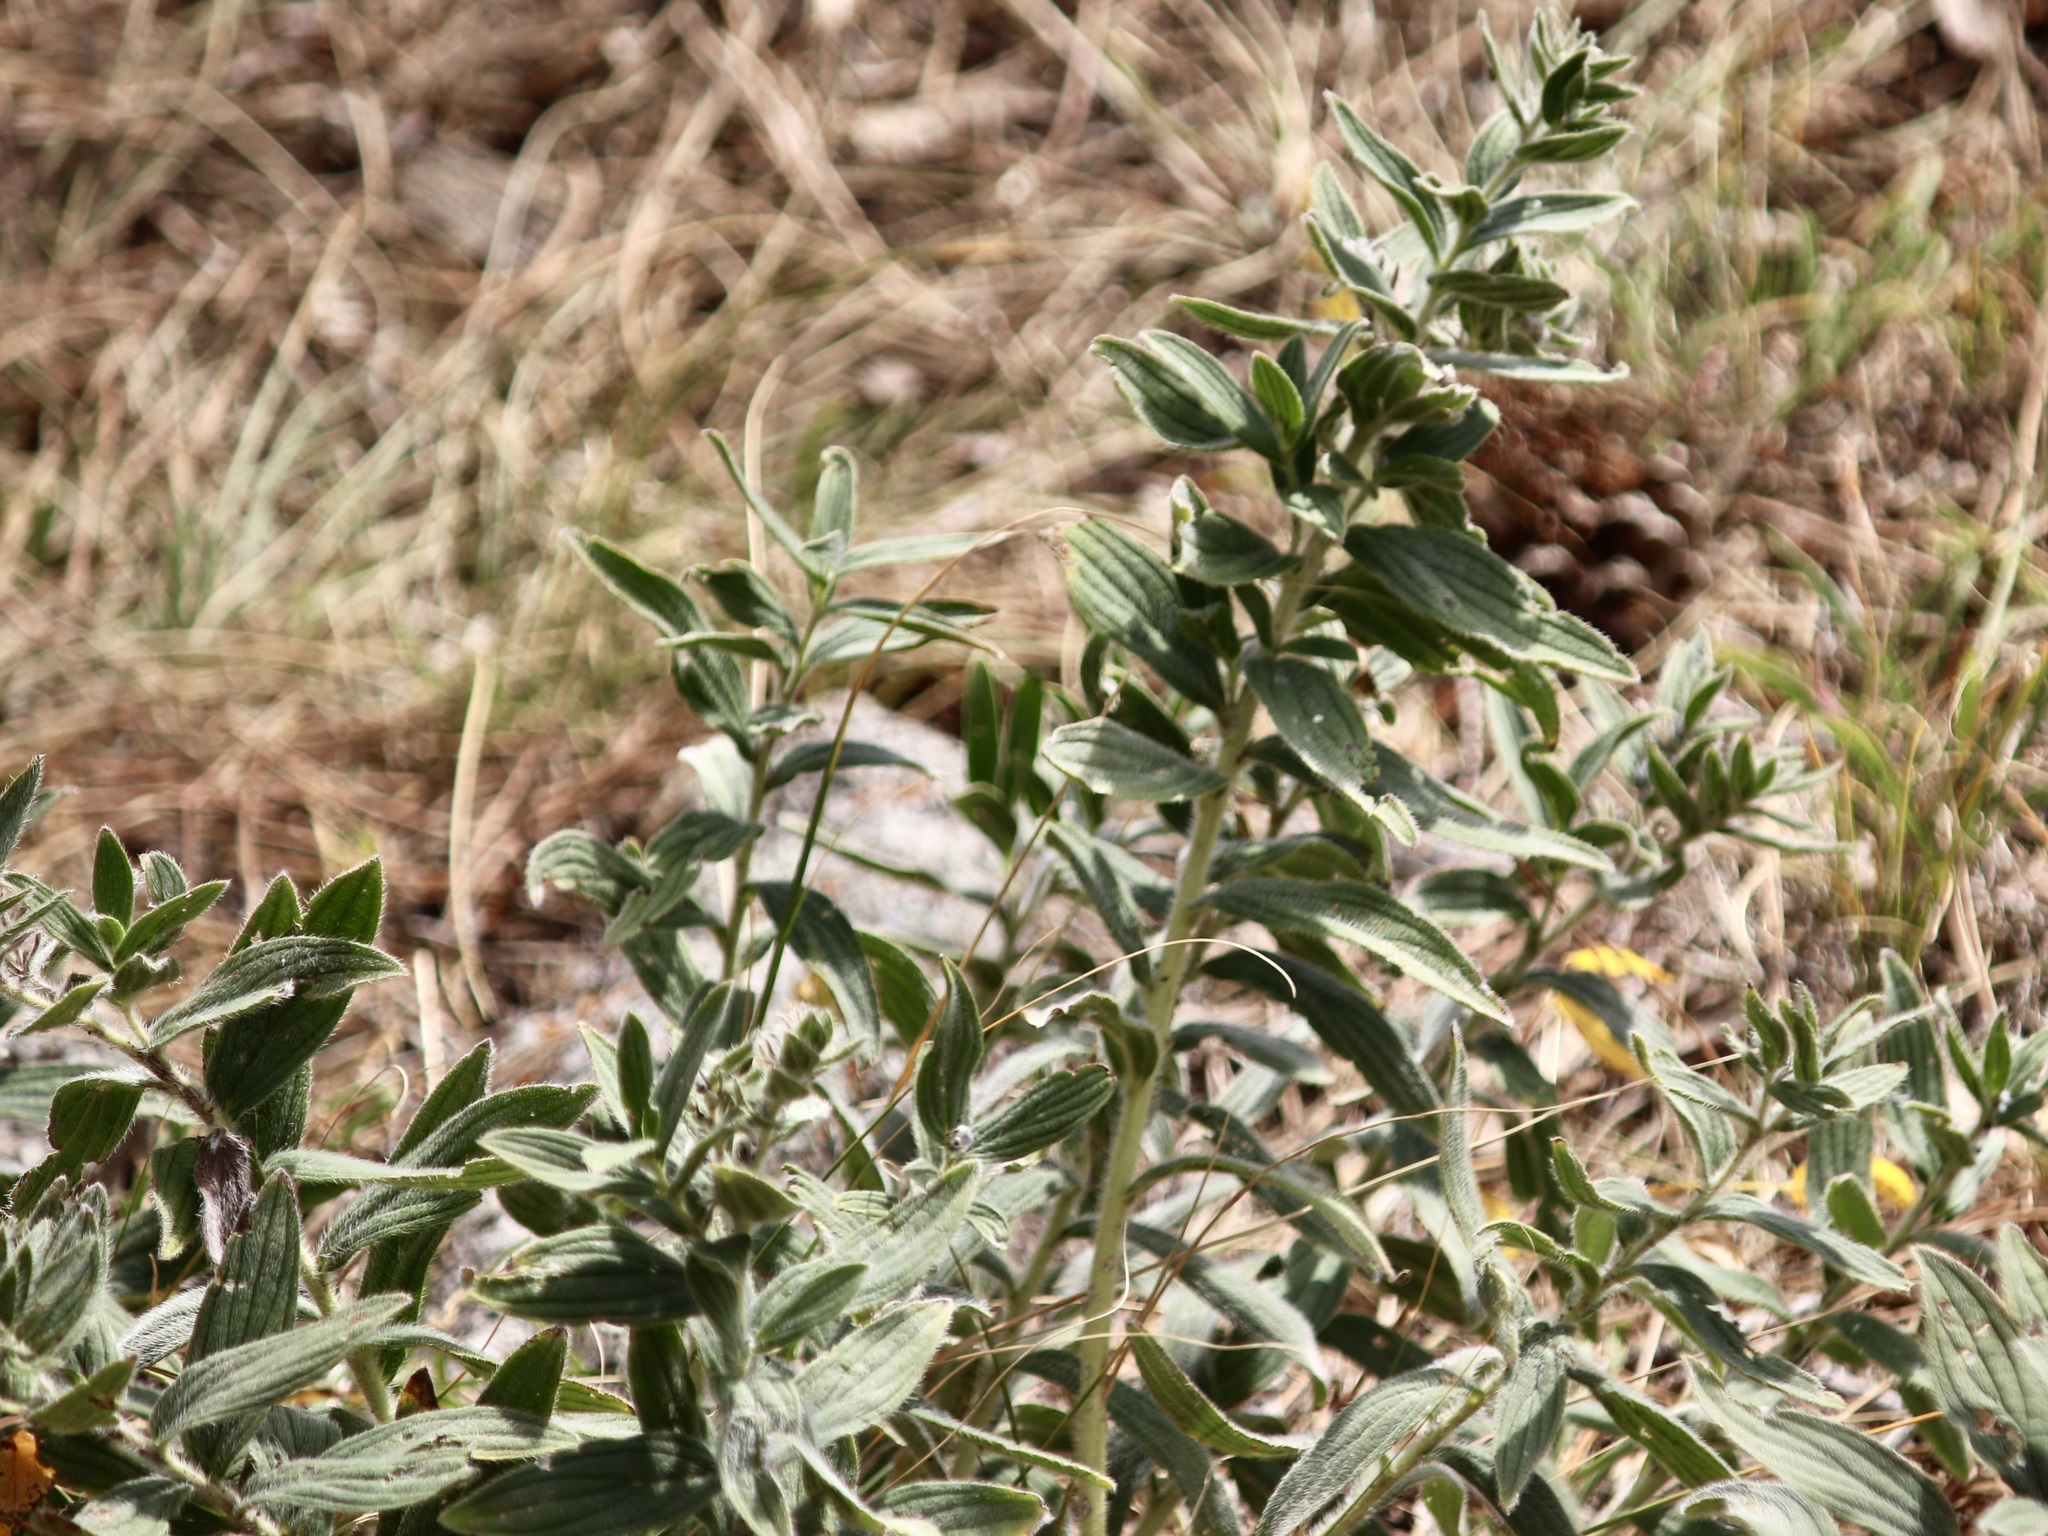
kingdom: Plantae
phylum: Tracheophyta
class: Magnoliopsida
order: Boraginales
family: Boraginaceae
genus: Lithospermum
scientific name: Lithospermum occidentale
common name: Western false gromwell
